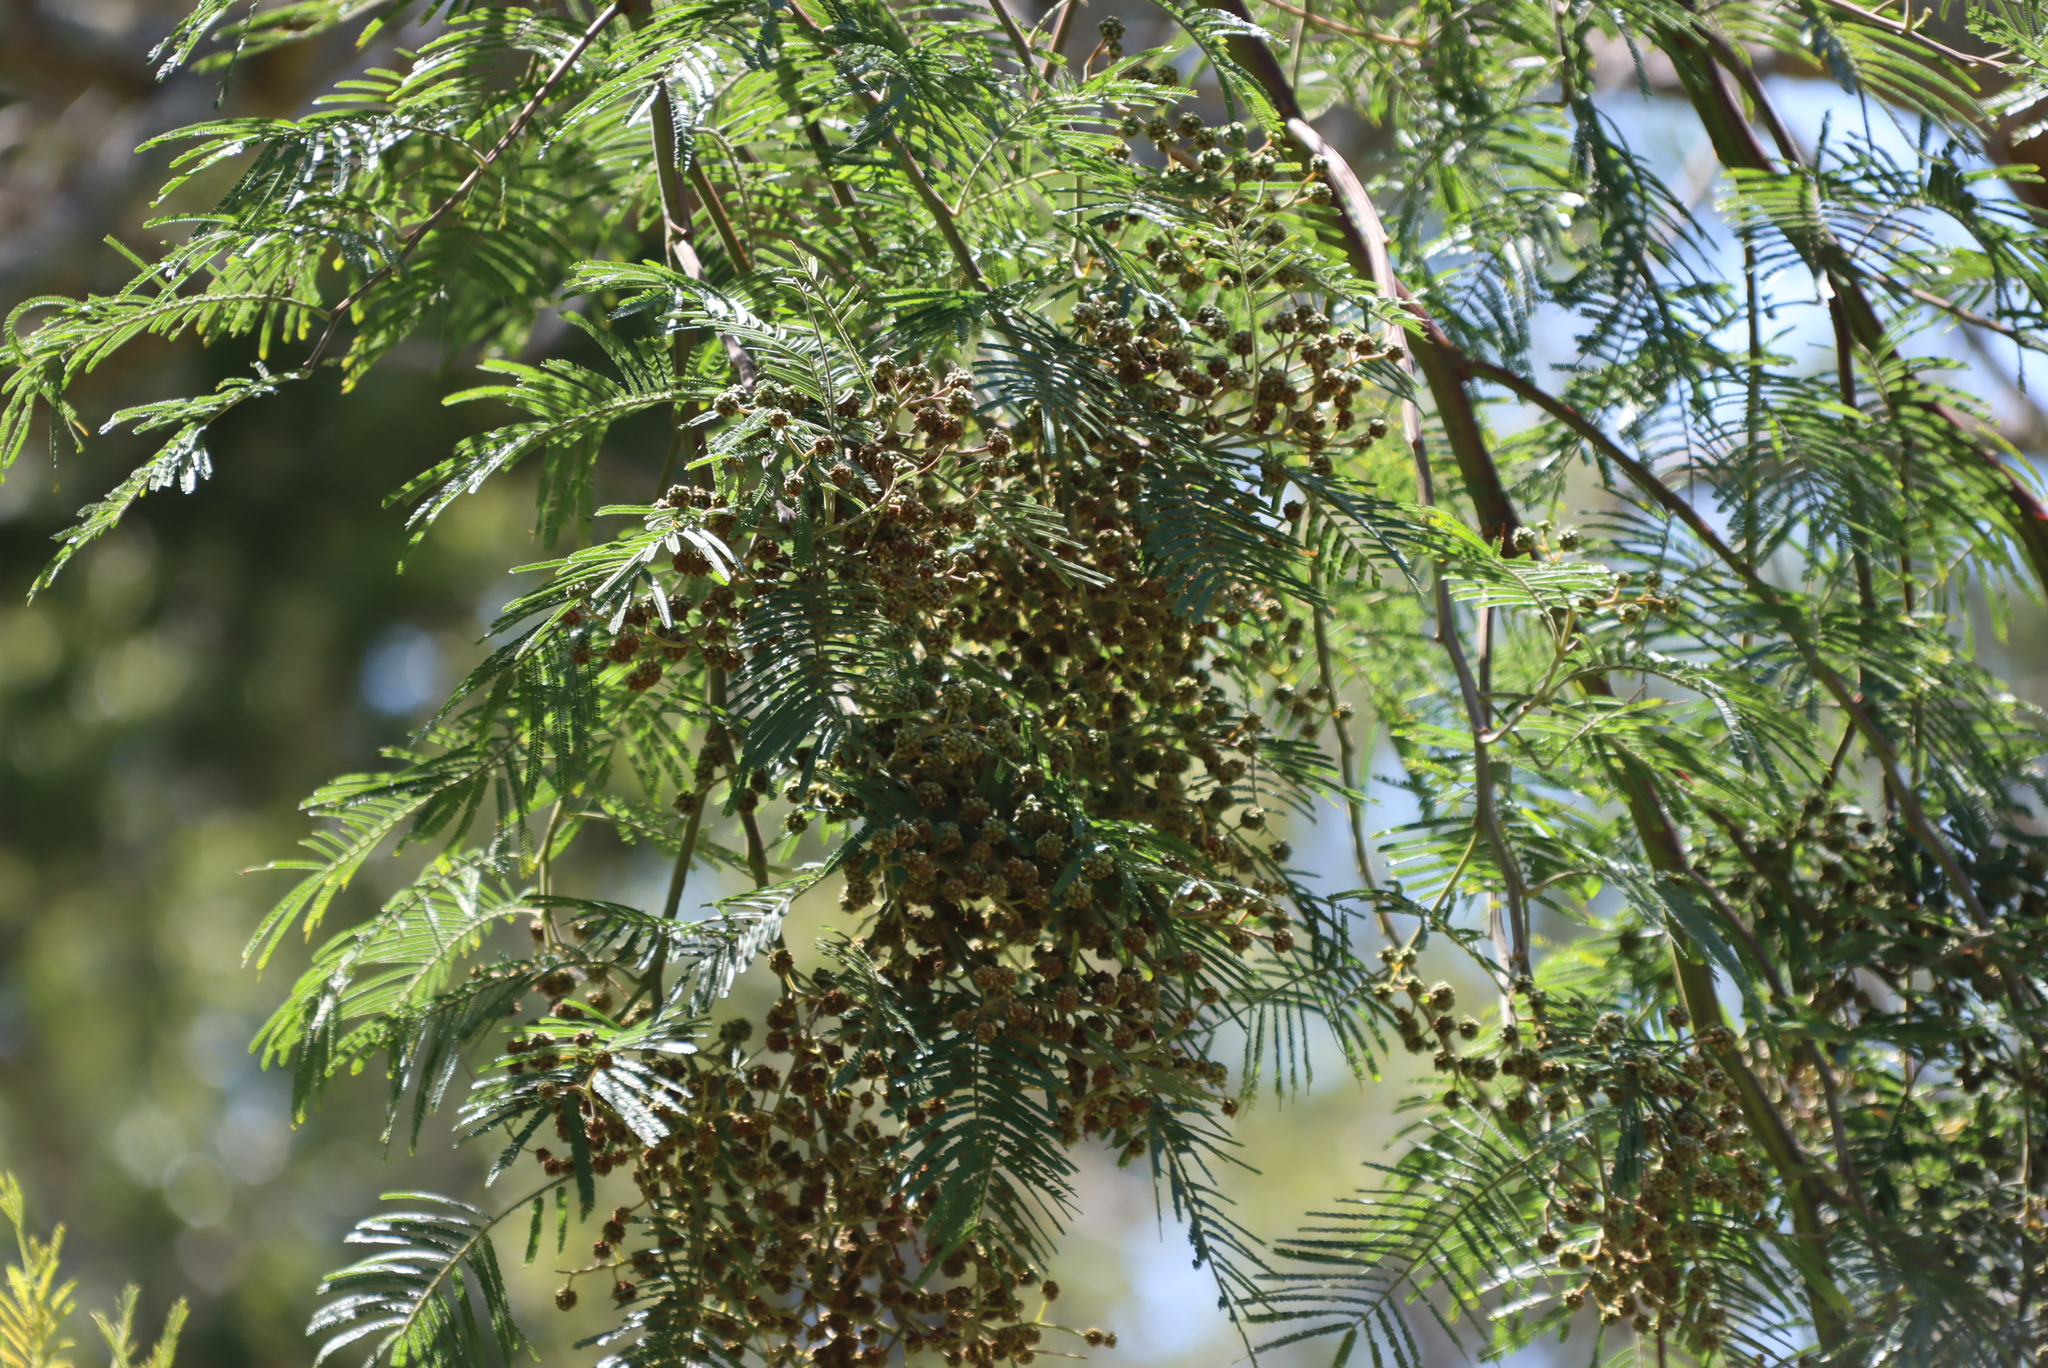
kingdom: Plantae
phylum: Tracheophyta
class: Magnoliopsida
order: Fabales
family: Fabaceae
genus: Acacia
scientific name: Acacia mearnsii
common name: Black wattle
